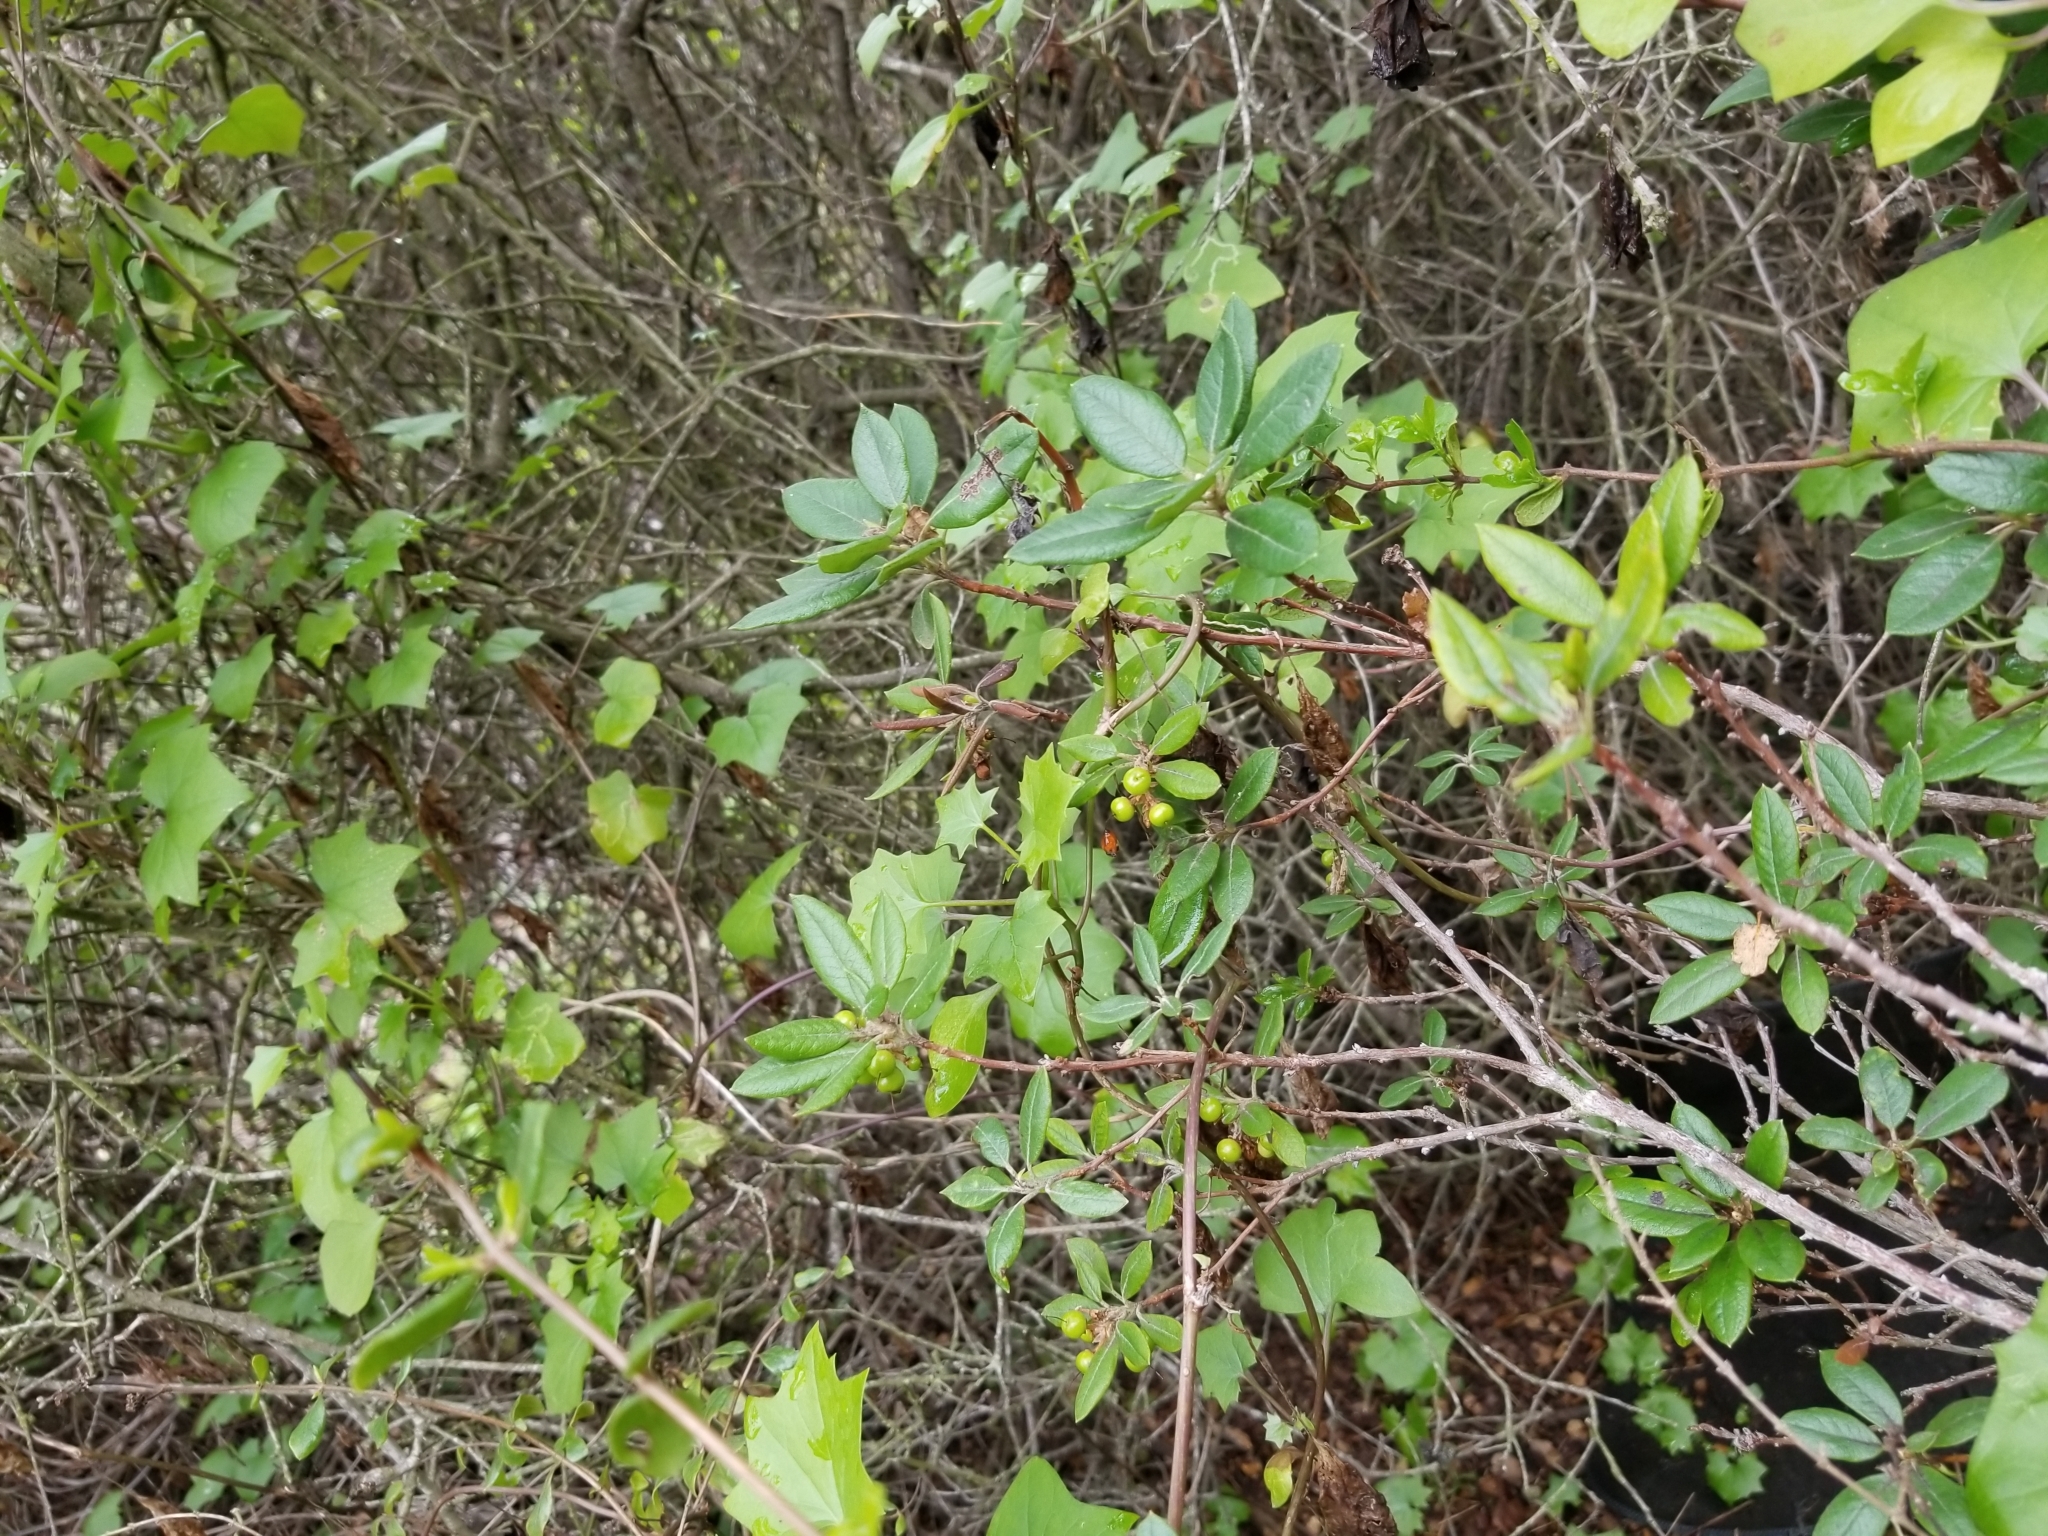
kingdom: Plantae
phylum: Tracheophyta
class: Magnoliopsida
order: Ericales
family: Ericaceae
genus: Arctostaphylos
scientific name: Arctostaphylos bicolor
